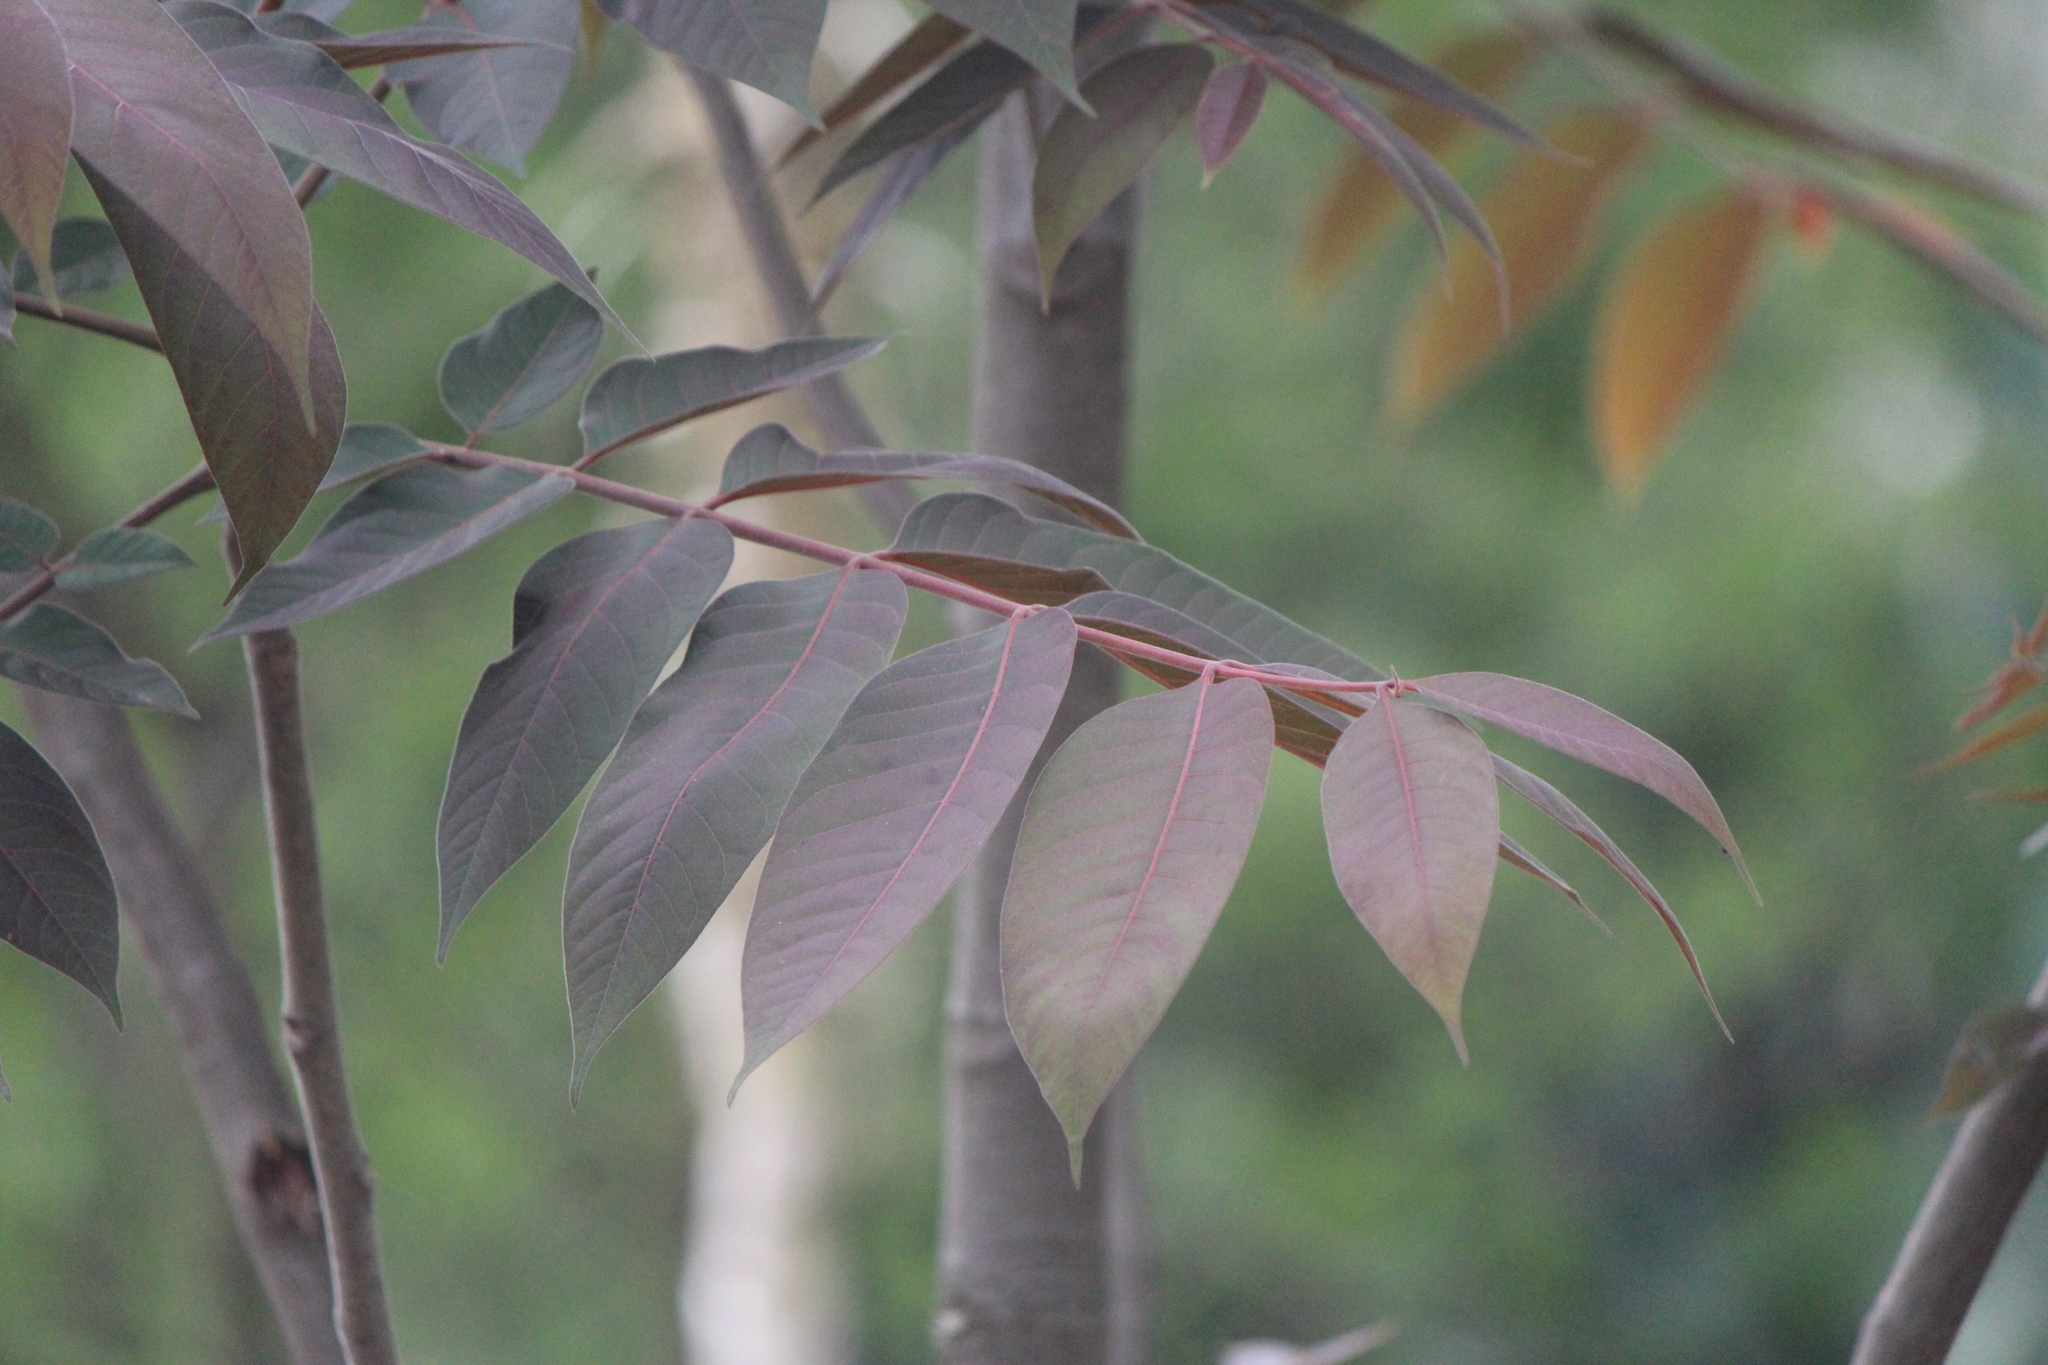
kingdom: Plantae
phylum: Tracheophyta
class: Magnoliopsida
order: Sapindales
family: Meliaceae
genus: Cedrela
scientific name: Cedrela odorata
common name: Red cedar
